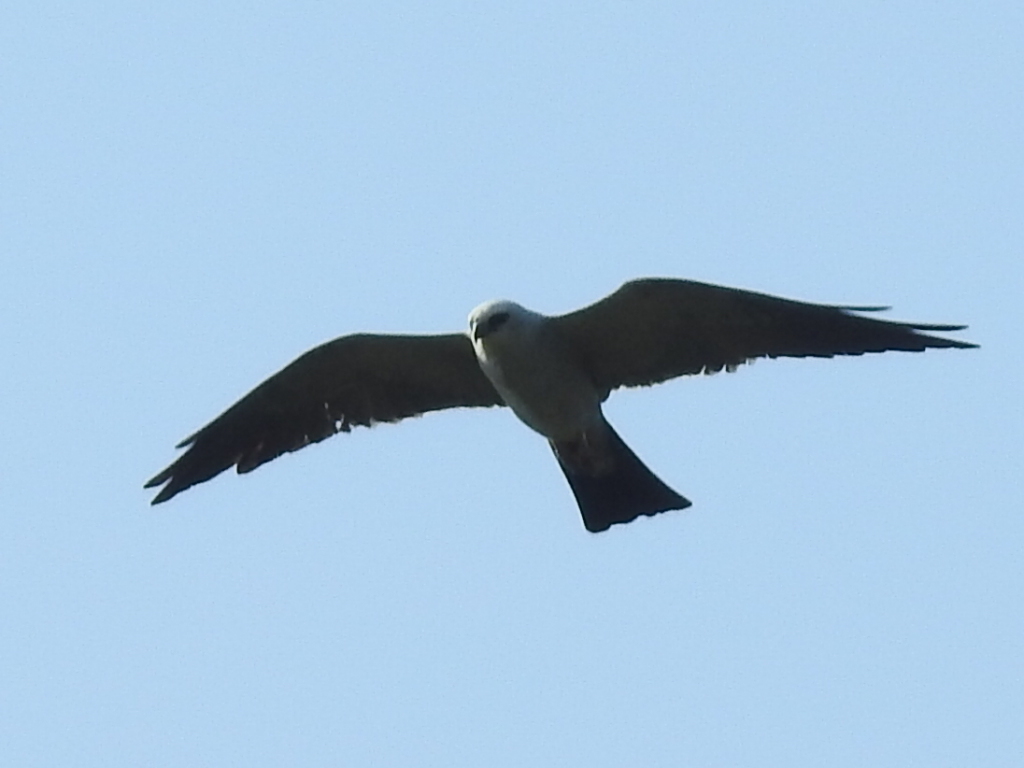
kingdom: Animalia
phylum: Chordata
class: Aves
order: Accipitriformes
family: Accipitridae
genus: Ictinia
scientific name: Ictinia mississippiensis
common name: Mississippi kite
